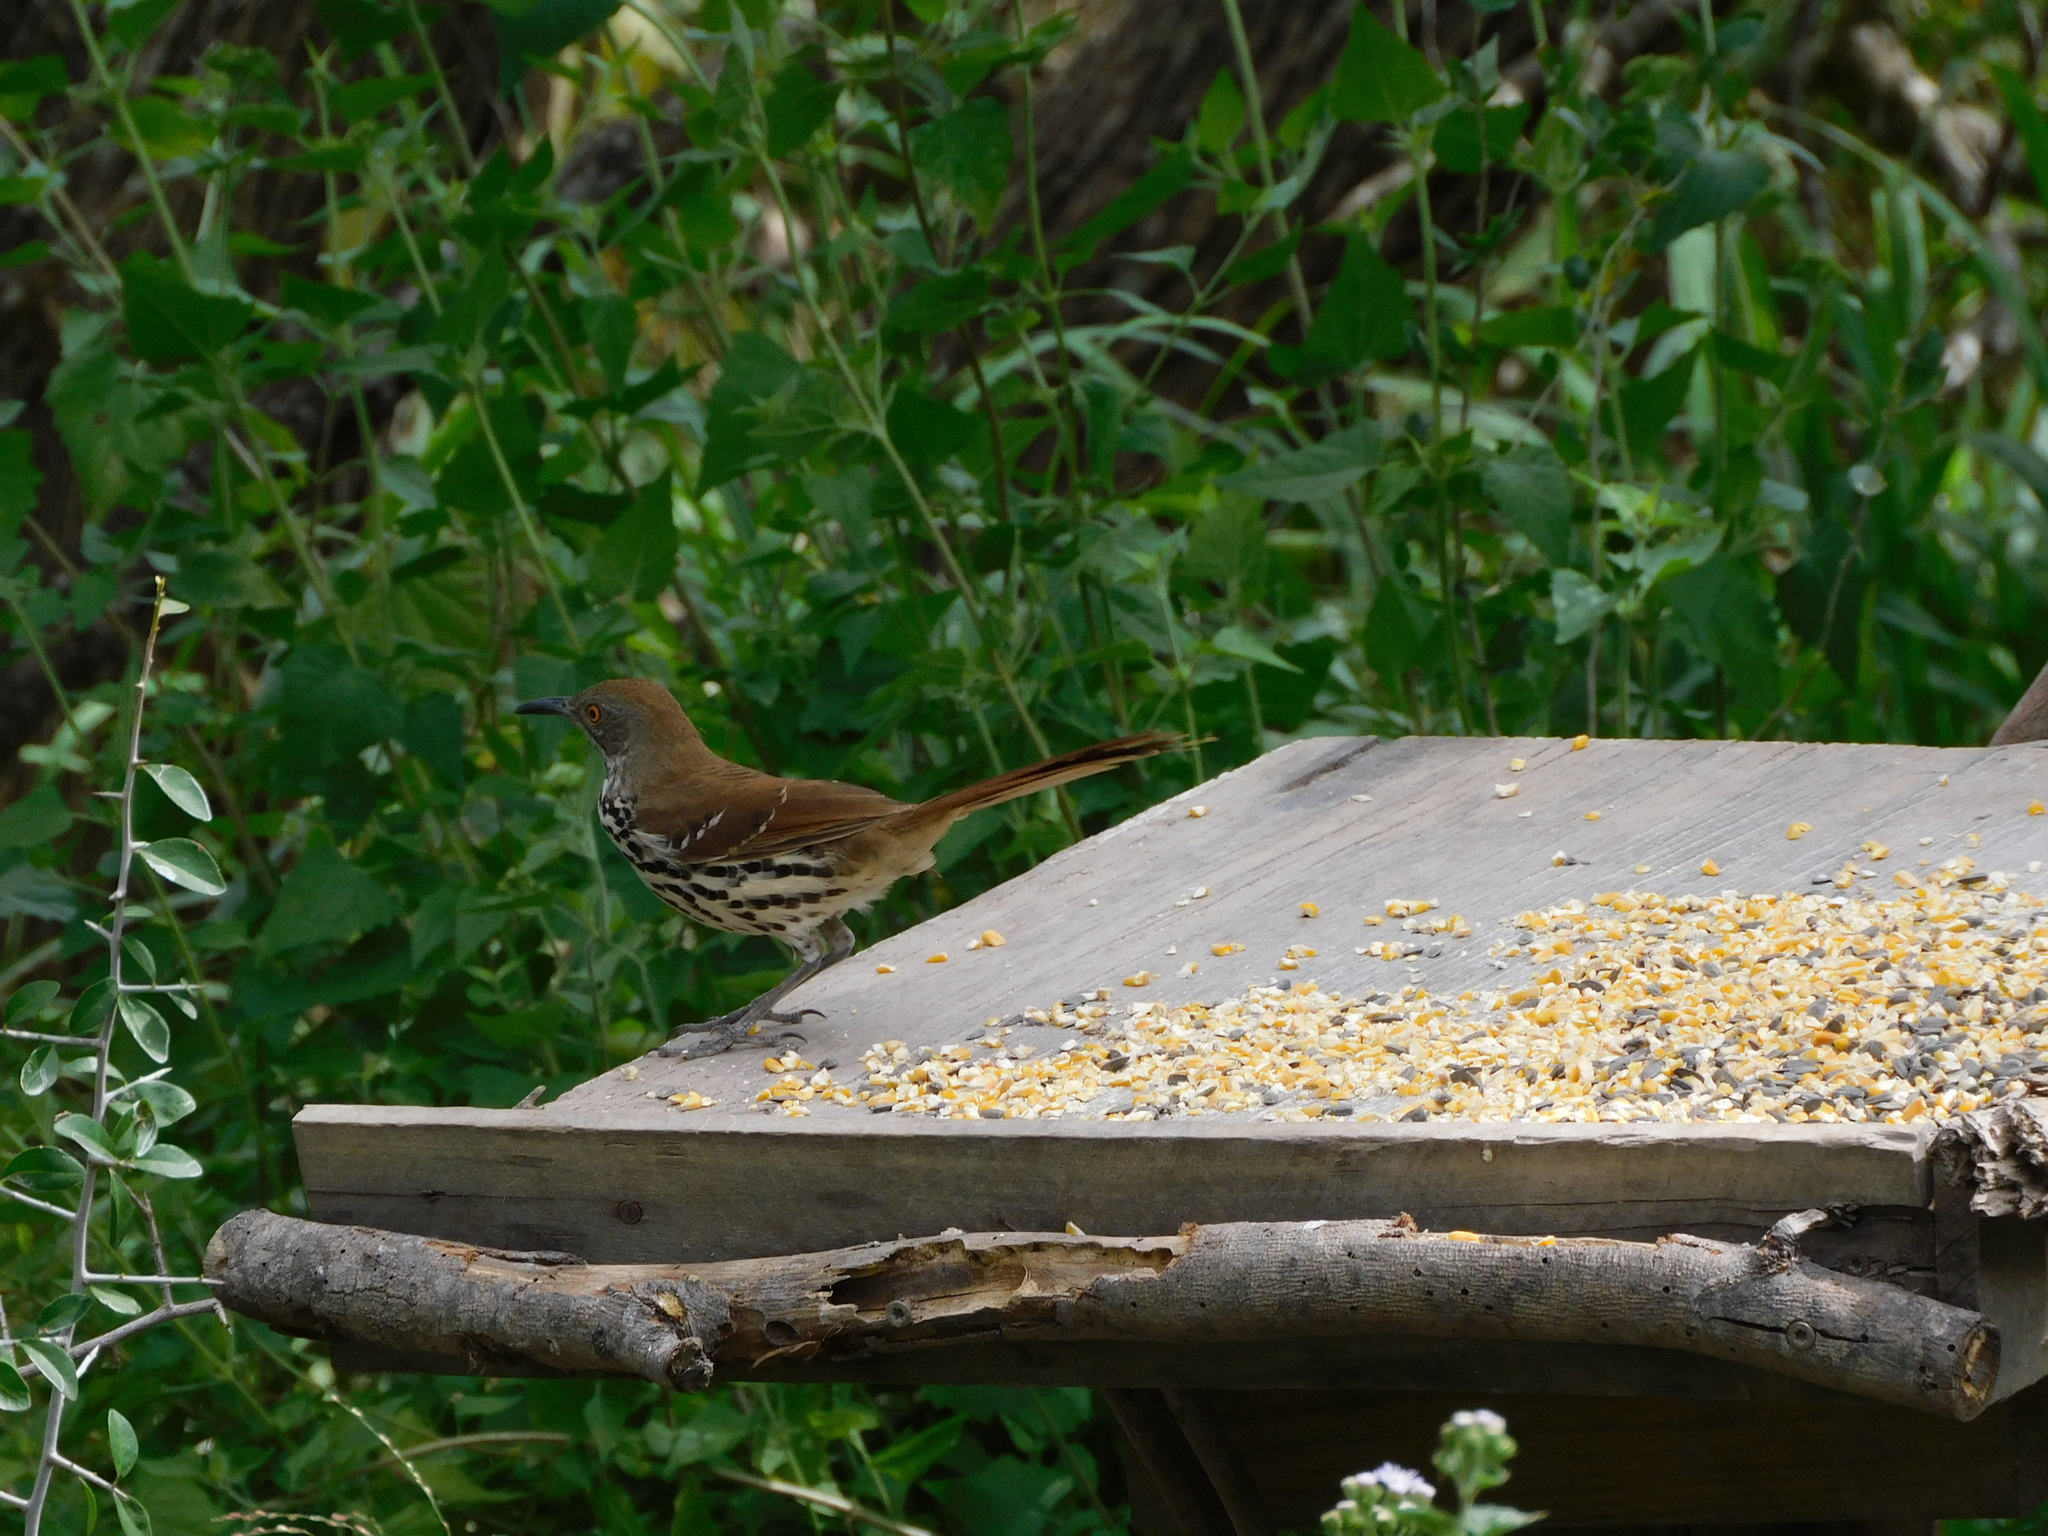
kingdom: Animalia
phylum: Chordata
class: Aves
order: Passeriformes
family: Mimidae
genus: Toxostoma
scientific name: Toxostoma longirostre
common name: Long-billed thrasher
